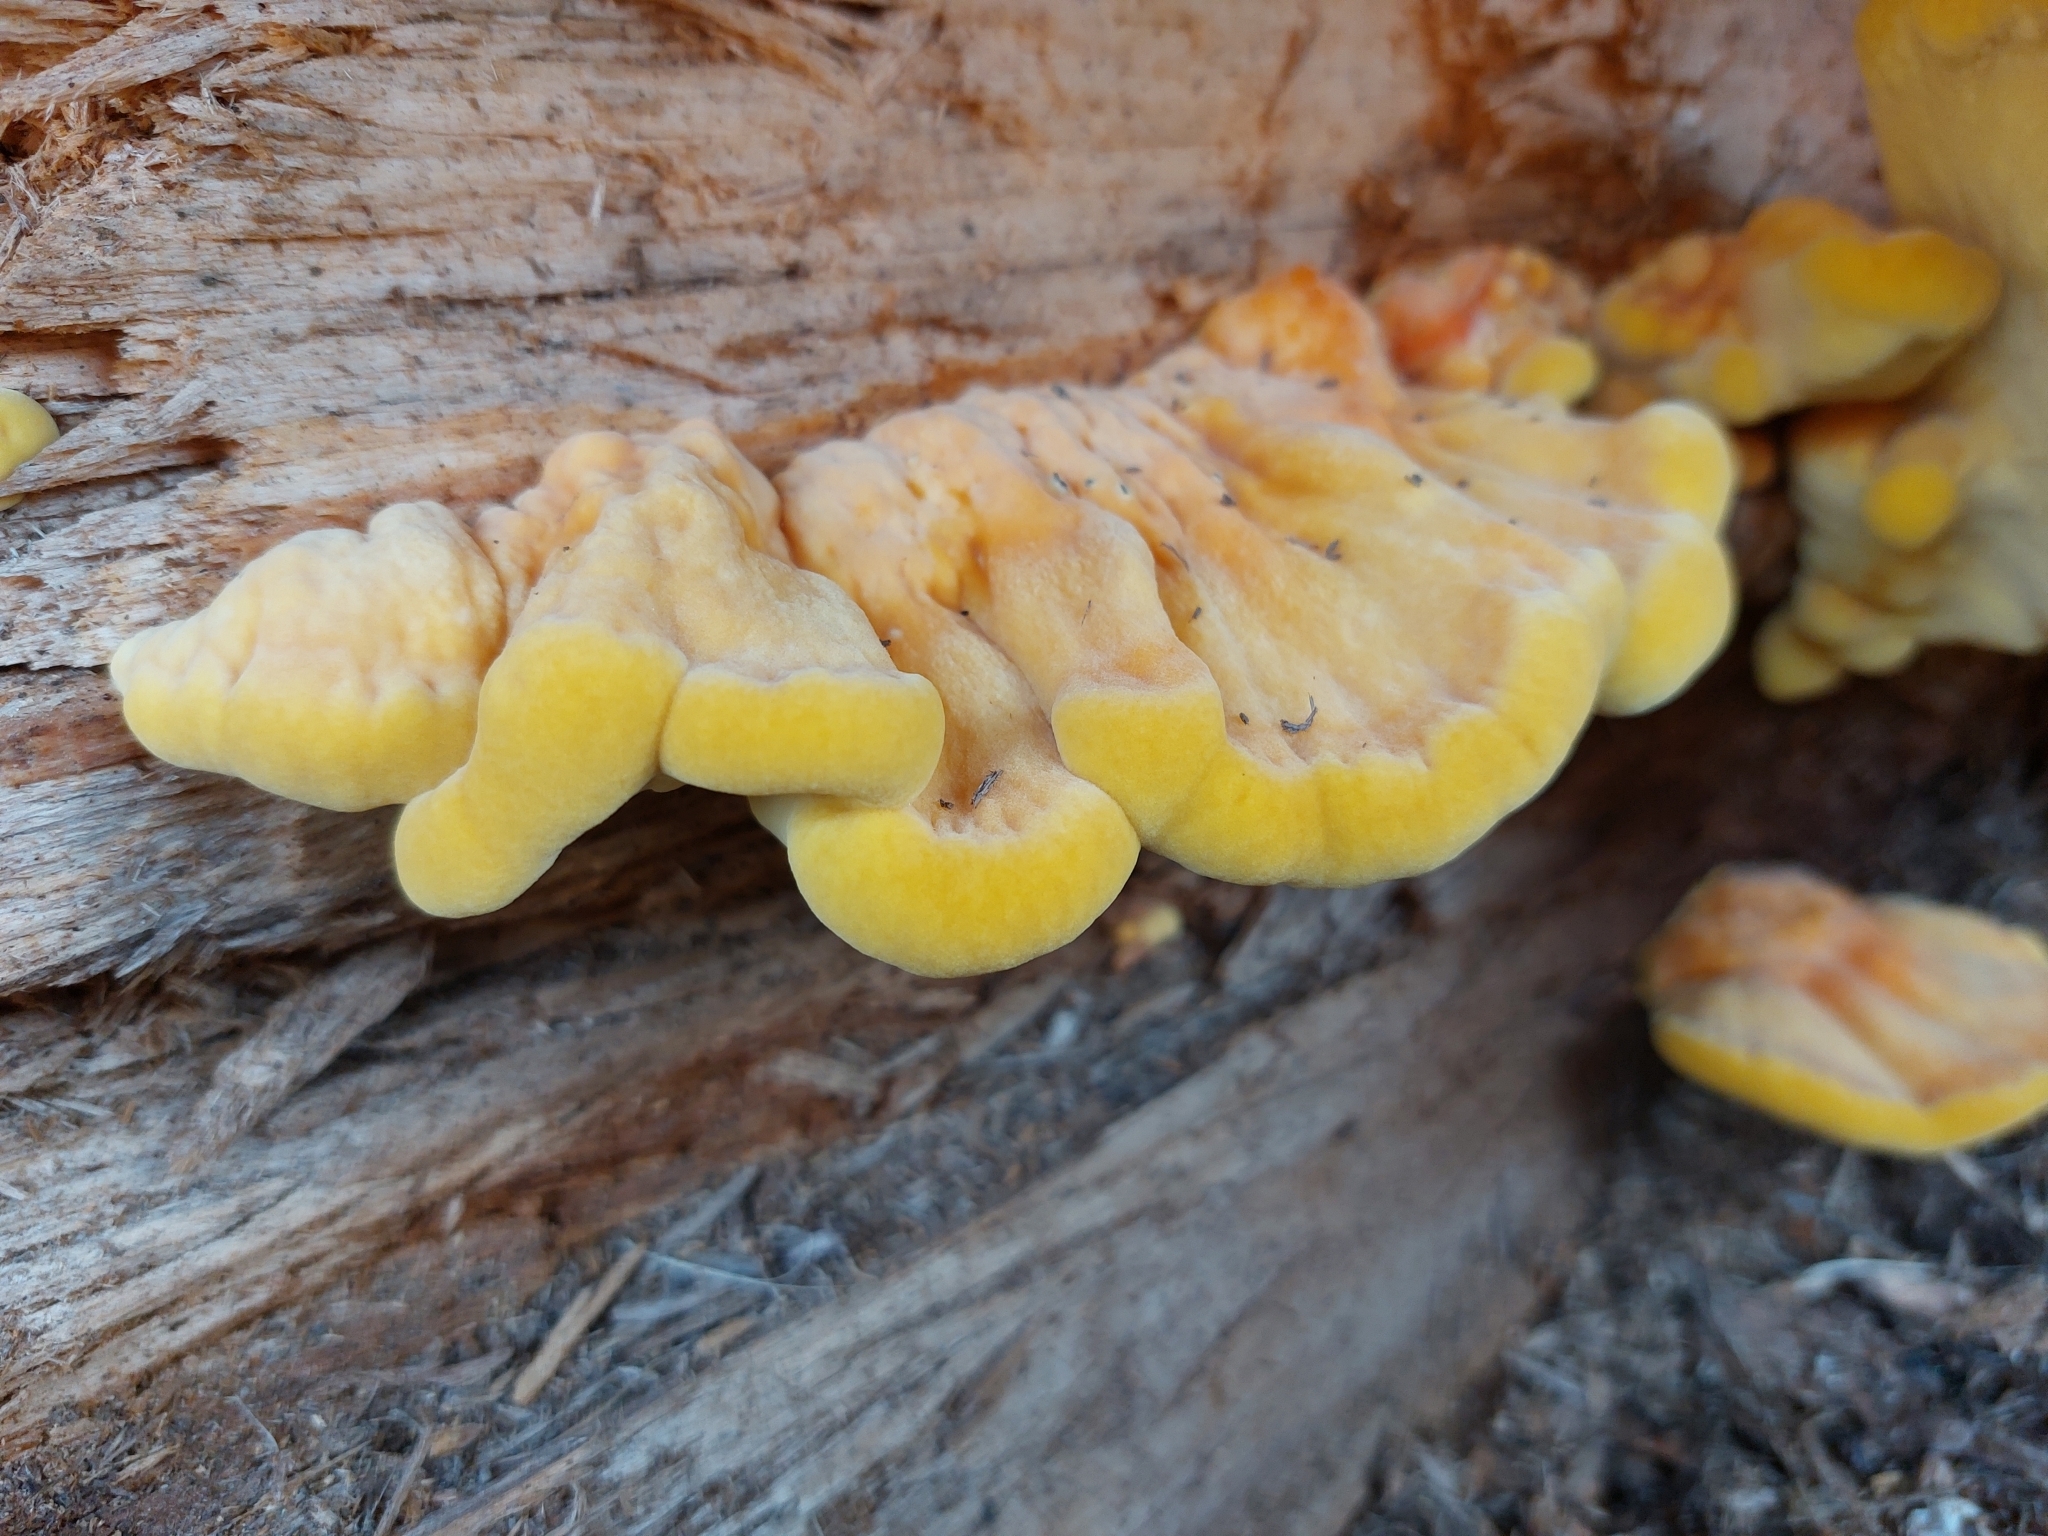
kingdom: Fungi
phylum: Basidiomycota
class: Agaricomycetes
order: Polyporales
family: Laetiporaceae
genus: Laetiporus
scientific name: Laetiporus sulphureus
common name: Chicken of the woods
